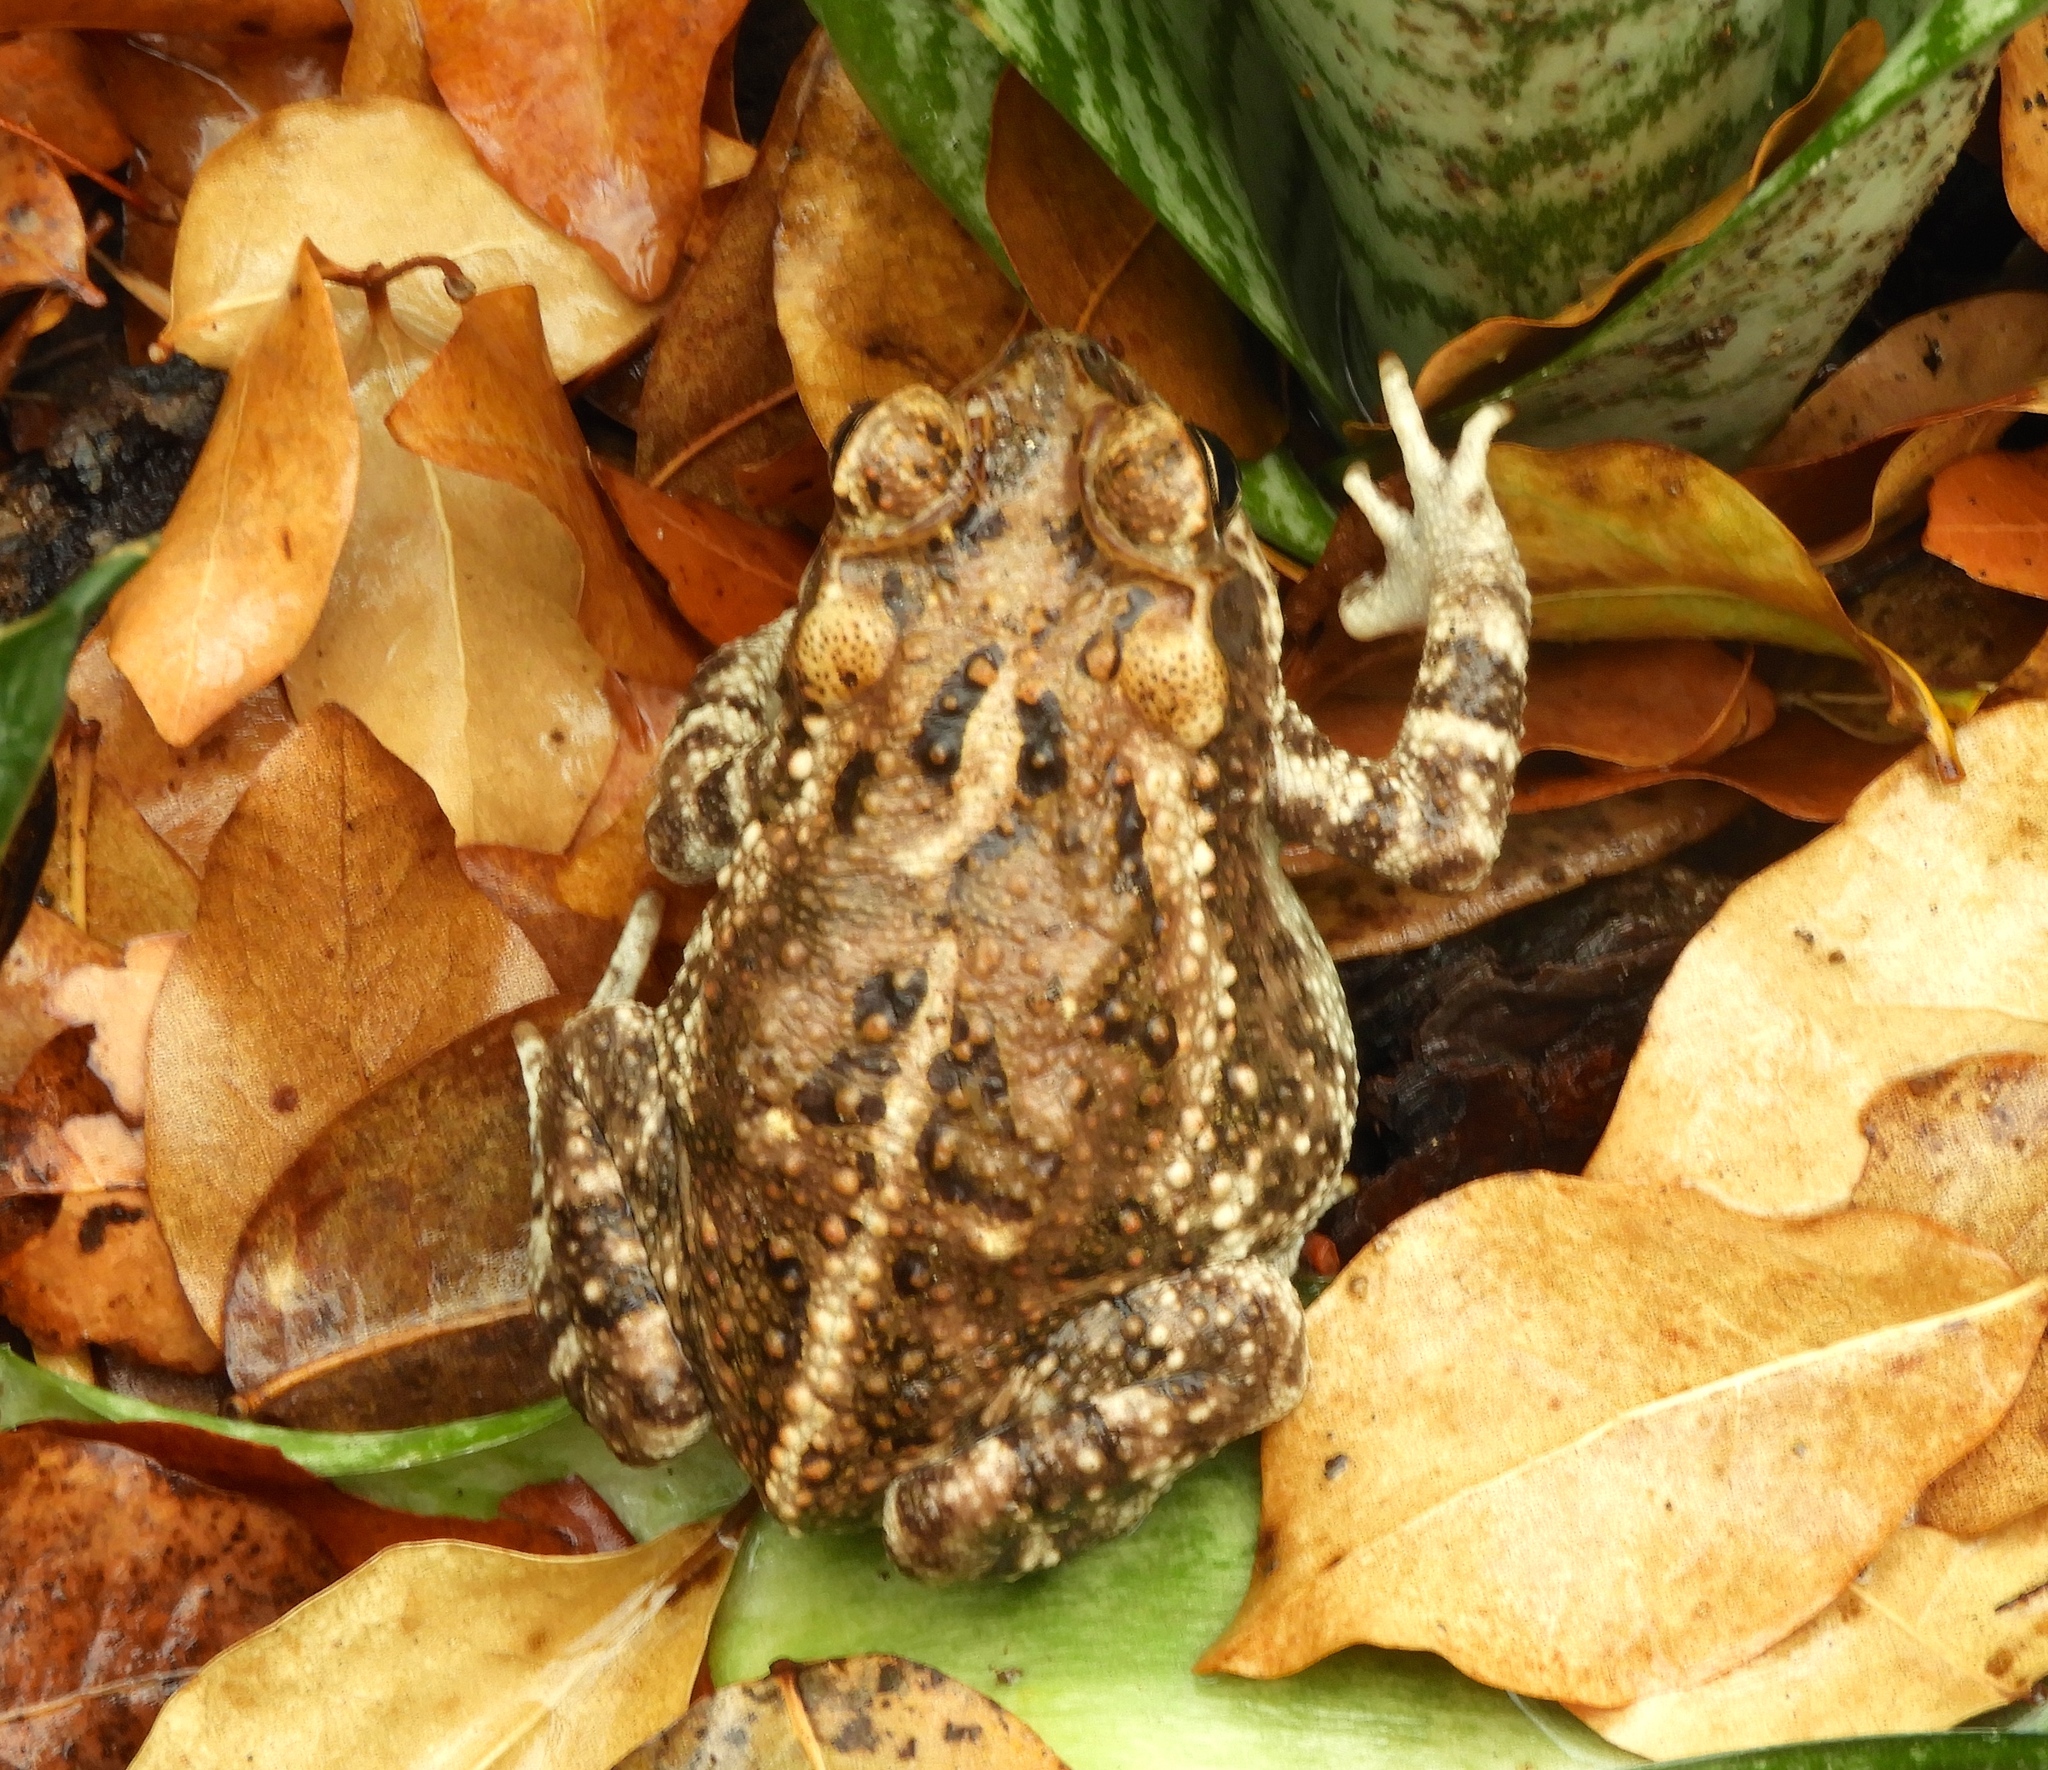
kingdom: Animalia
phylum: Chordata
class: Amphibia
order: Anura
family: Bufonidae
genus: Incilius
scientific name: Incilius marmoreus
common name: Marbled toad
